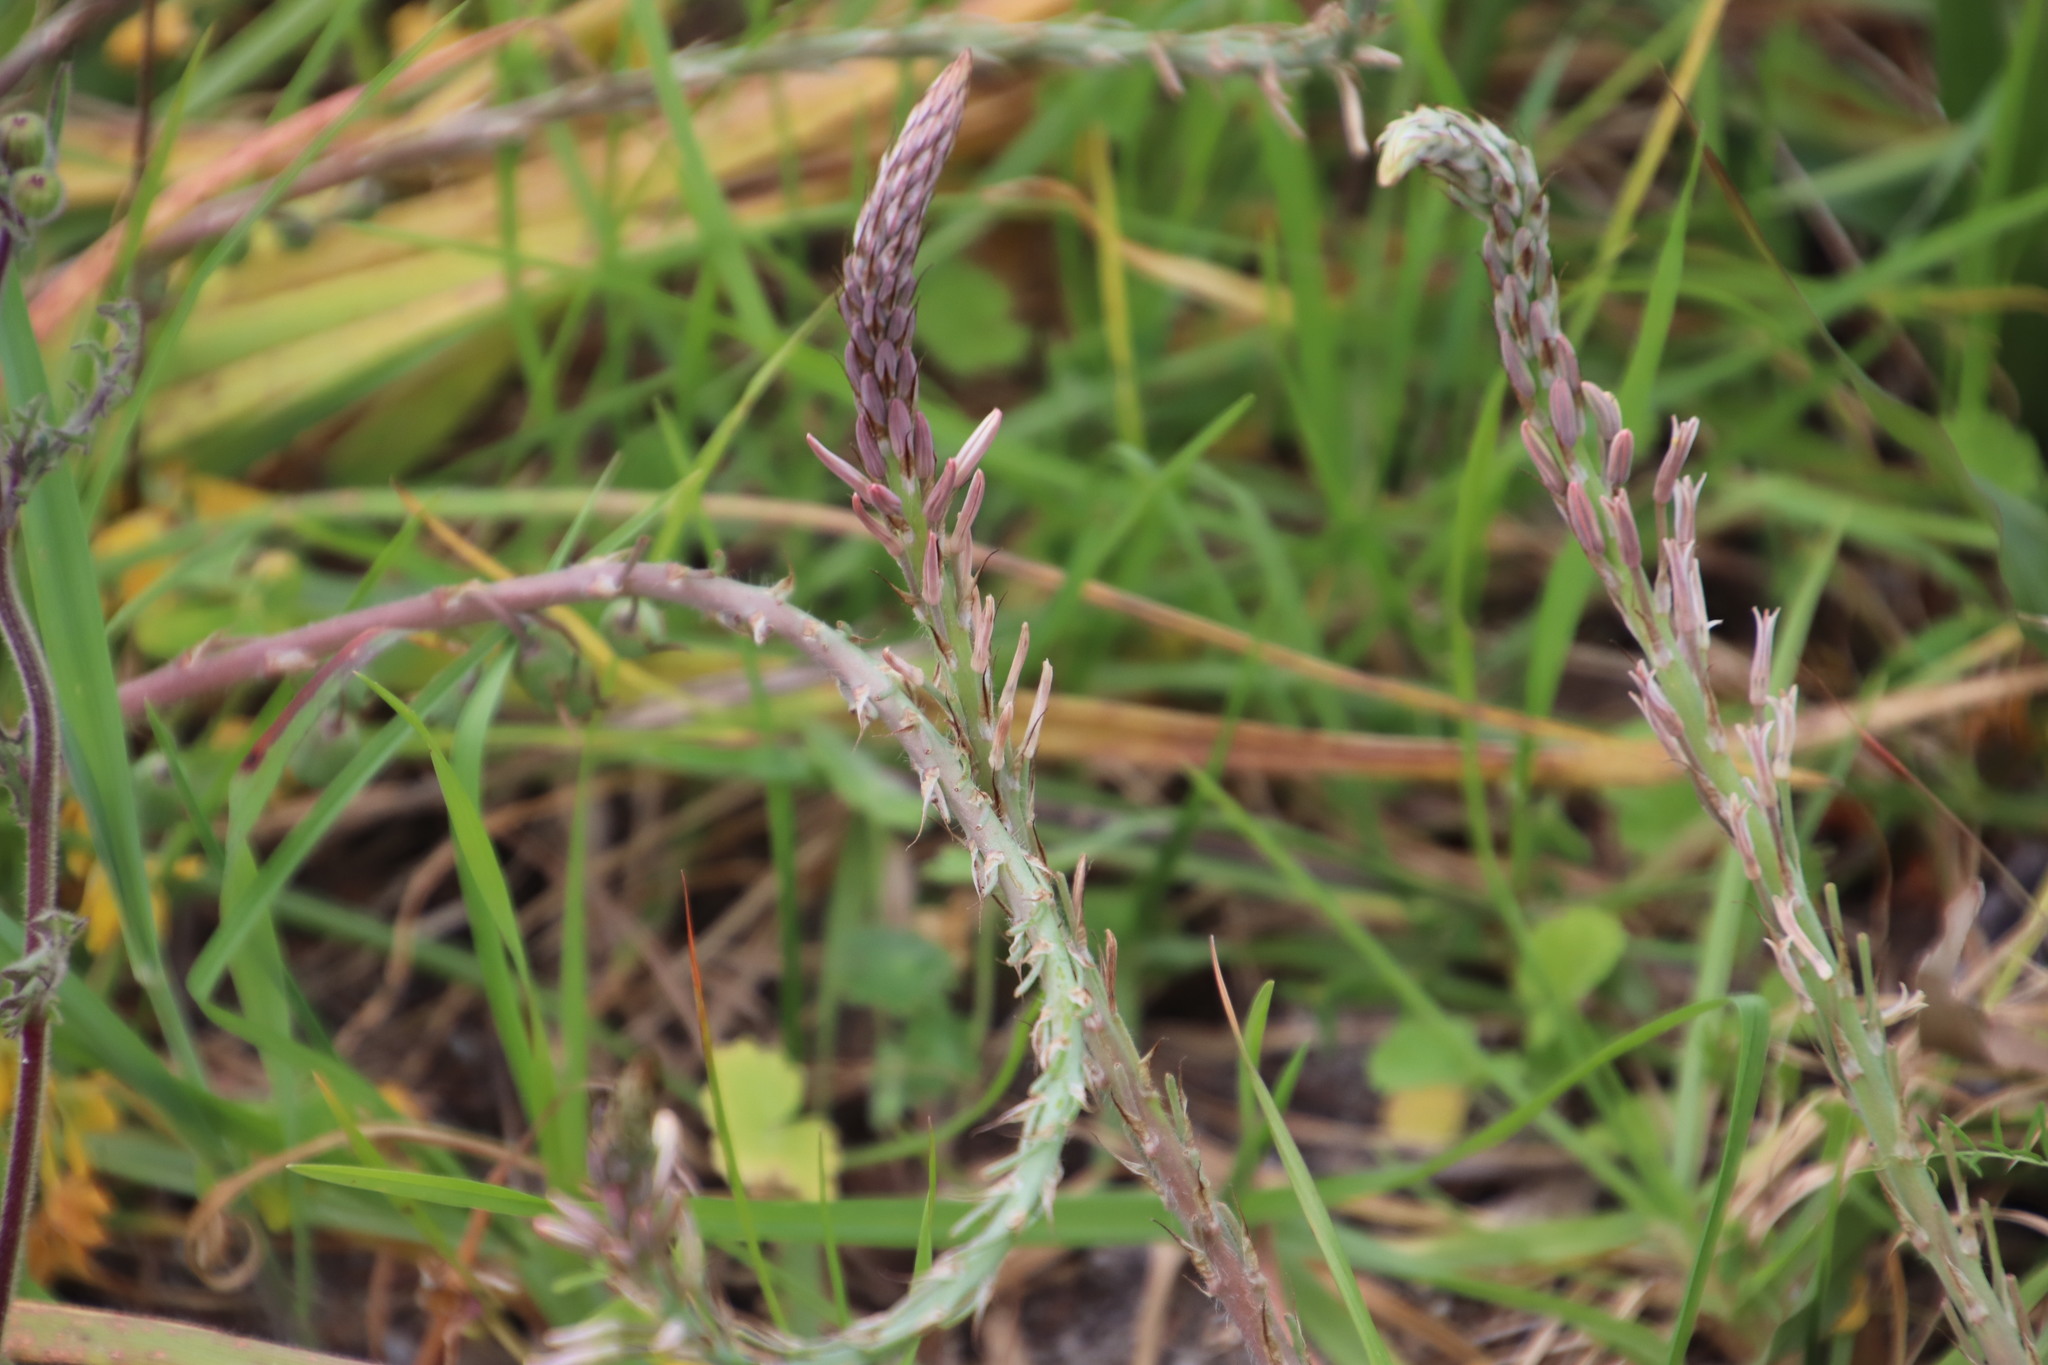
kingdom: Plantae
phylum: Tracheophyta
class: Liliopsida
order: Asparagales
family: Asphodelaceae
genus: Trachyandra
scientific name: Trachyandra ciliata
